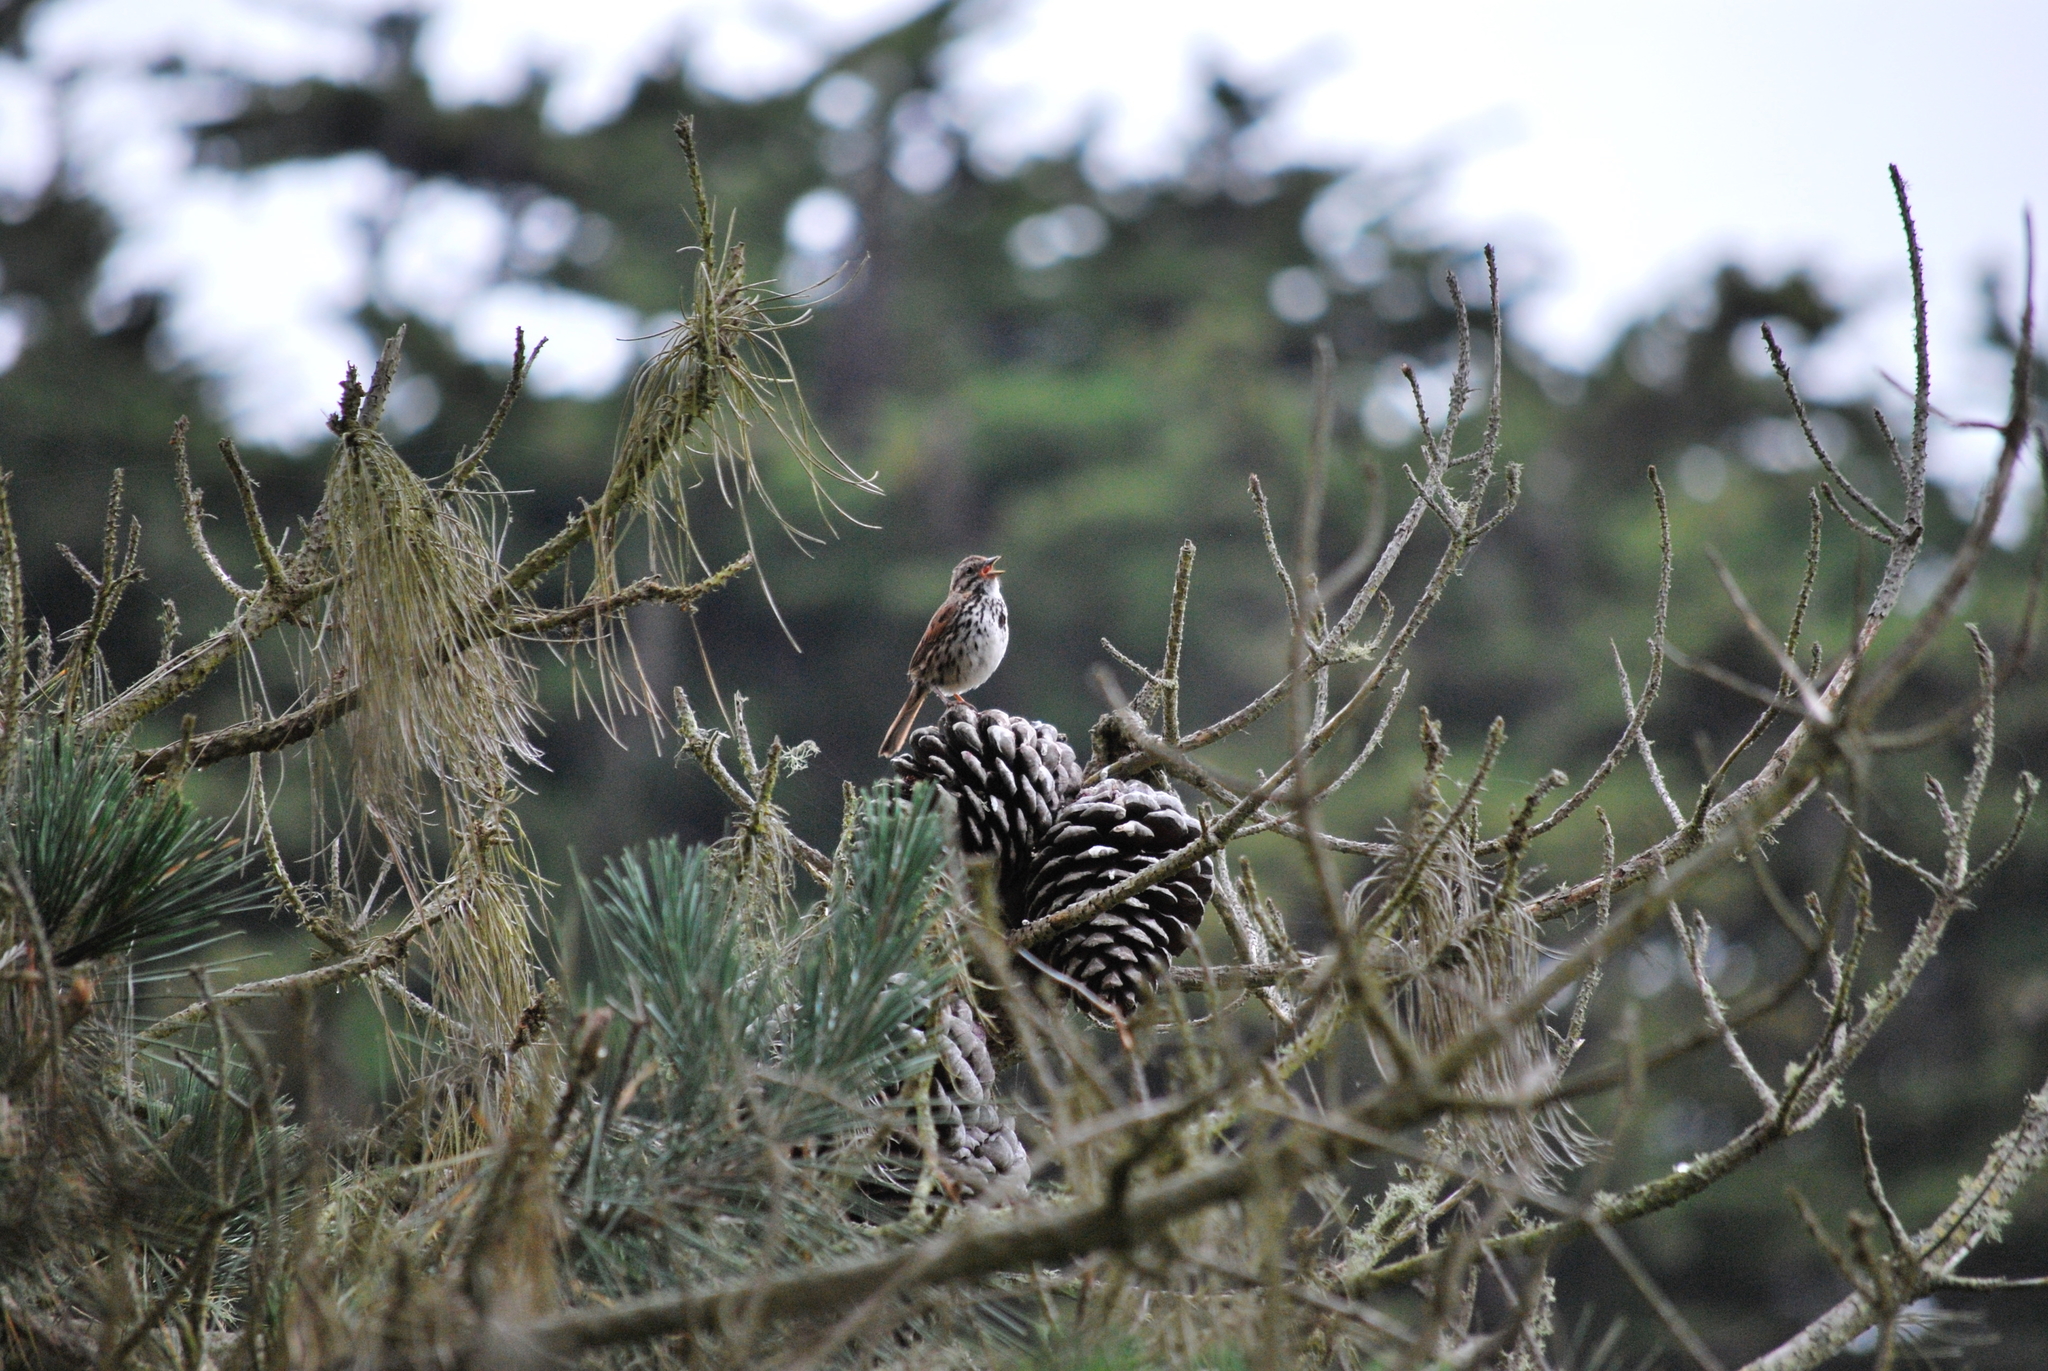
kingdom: Animalia
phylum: Chordata
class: Aves
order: Passeriformes
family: Passerellidae
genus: Melospiza
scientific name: Melospiza melodia
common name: Song sparrow
